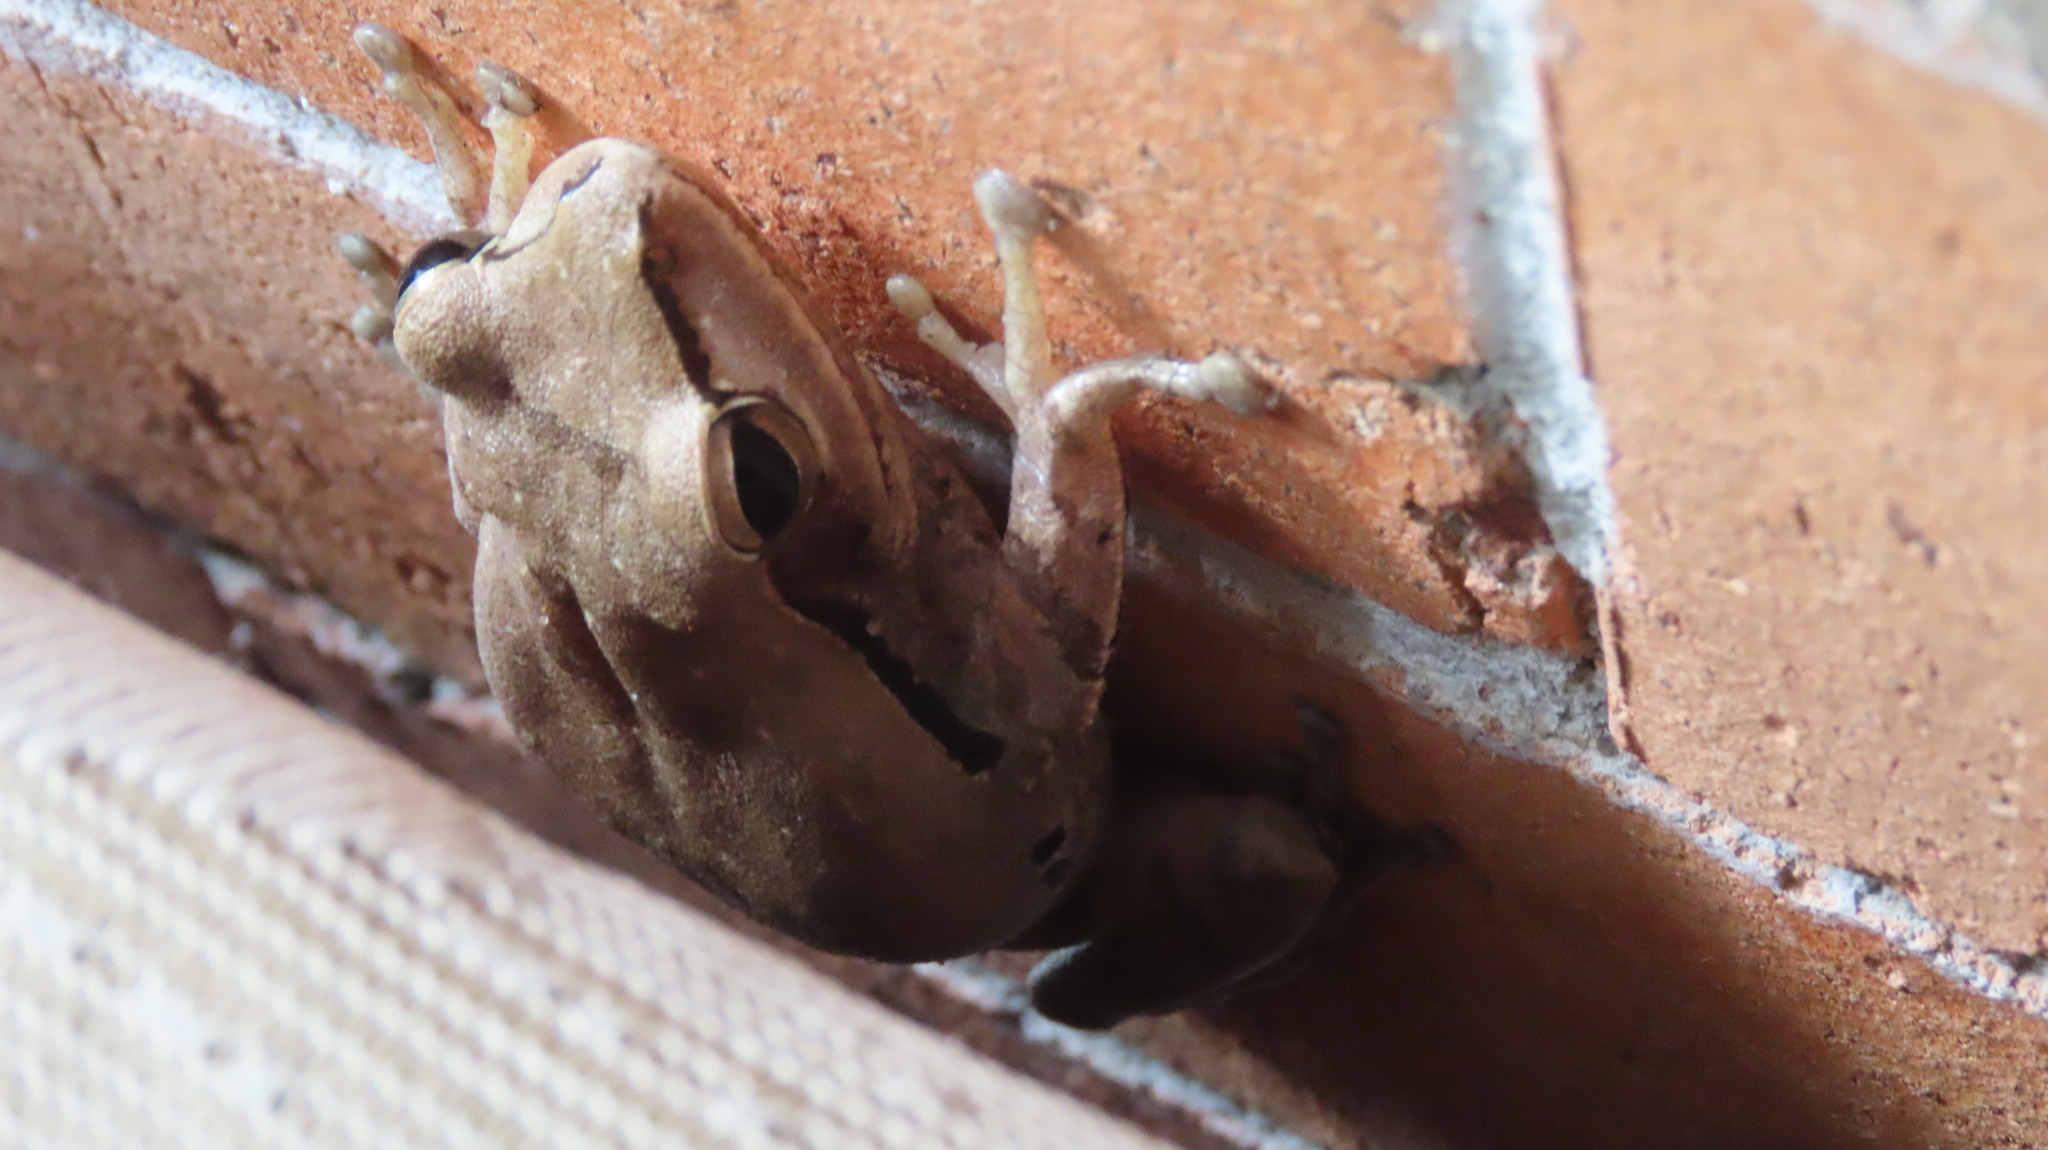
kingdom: Animalia
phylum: Chordata
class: Amphibia
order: Anura
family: Rhacophoridae
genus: Polypedates
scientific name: Polypedates maculatus
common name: Himalayan tree frog
